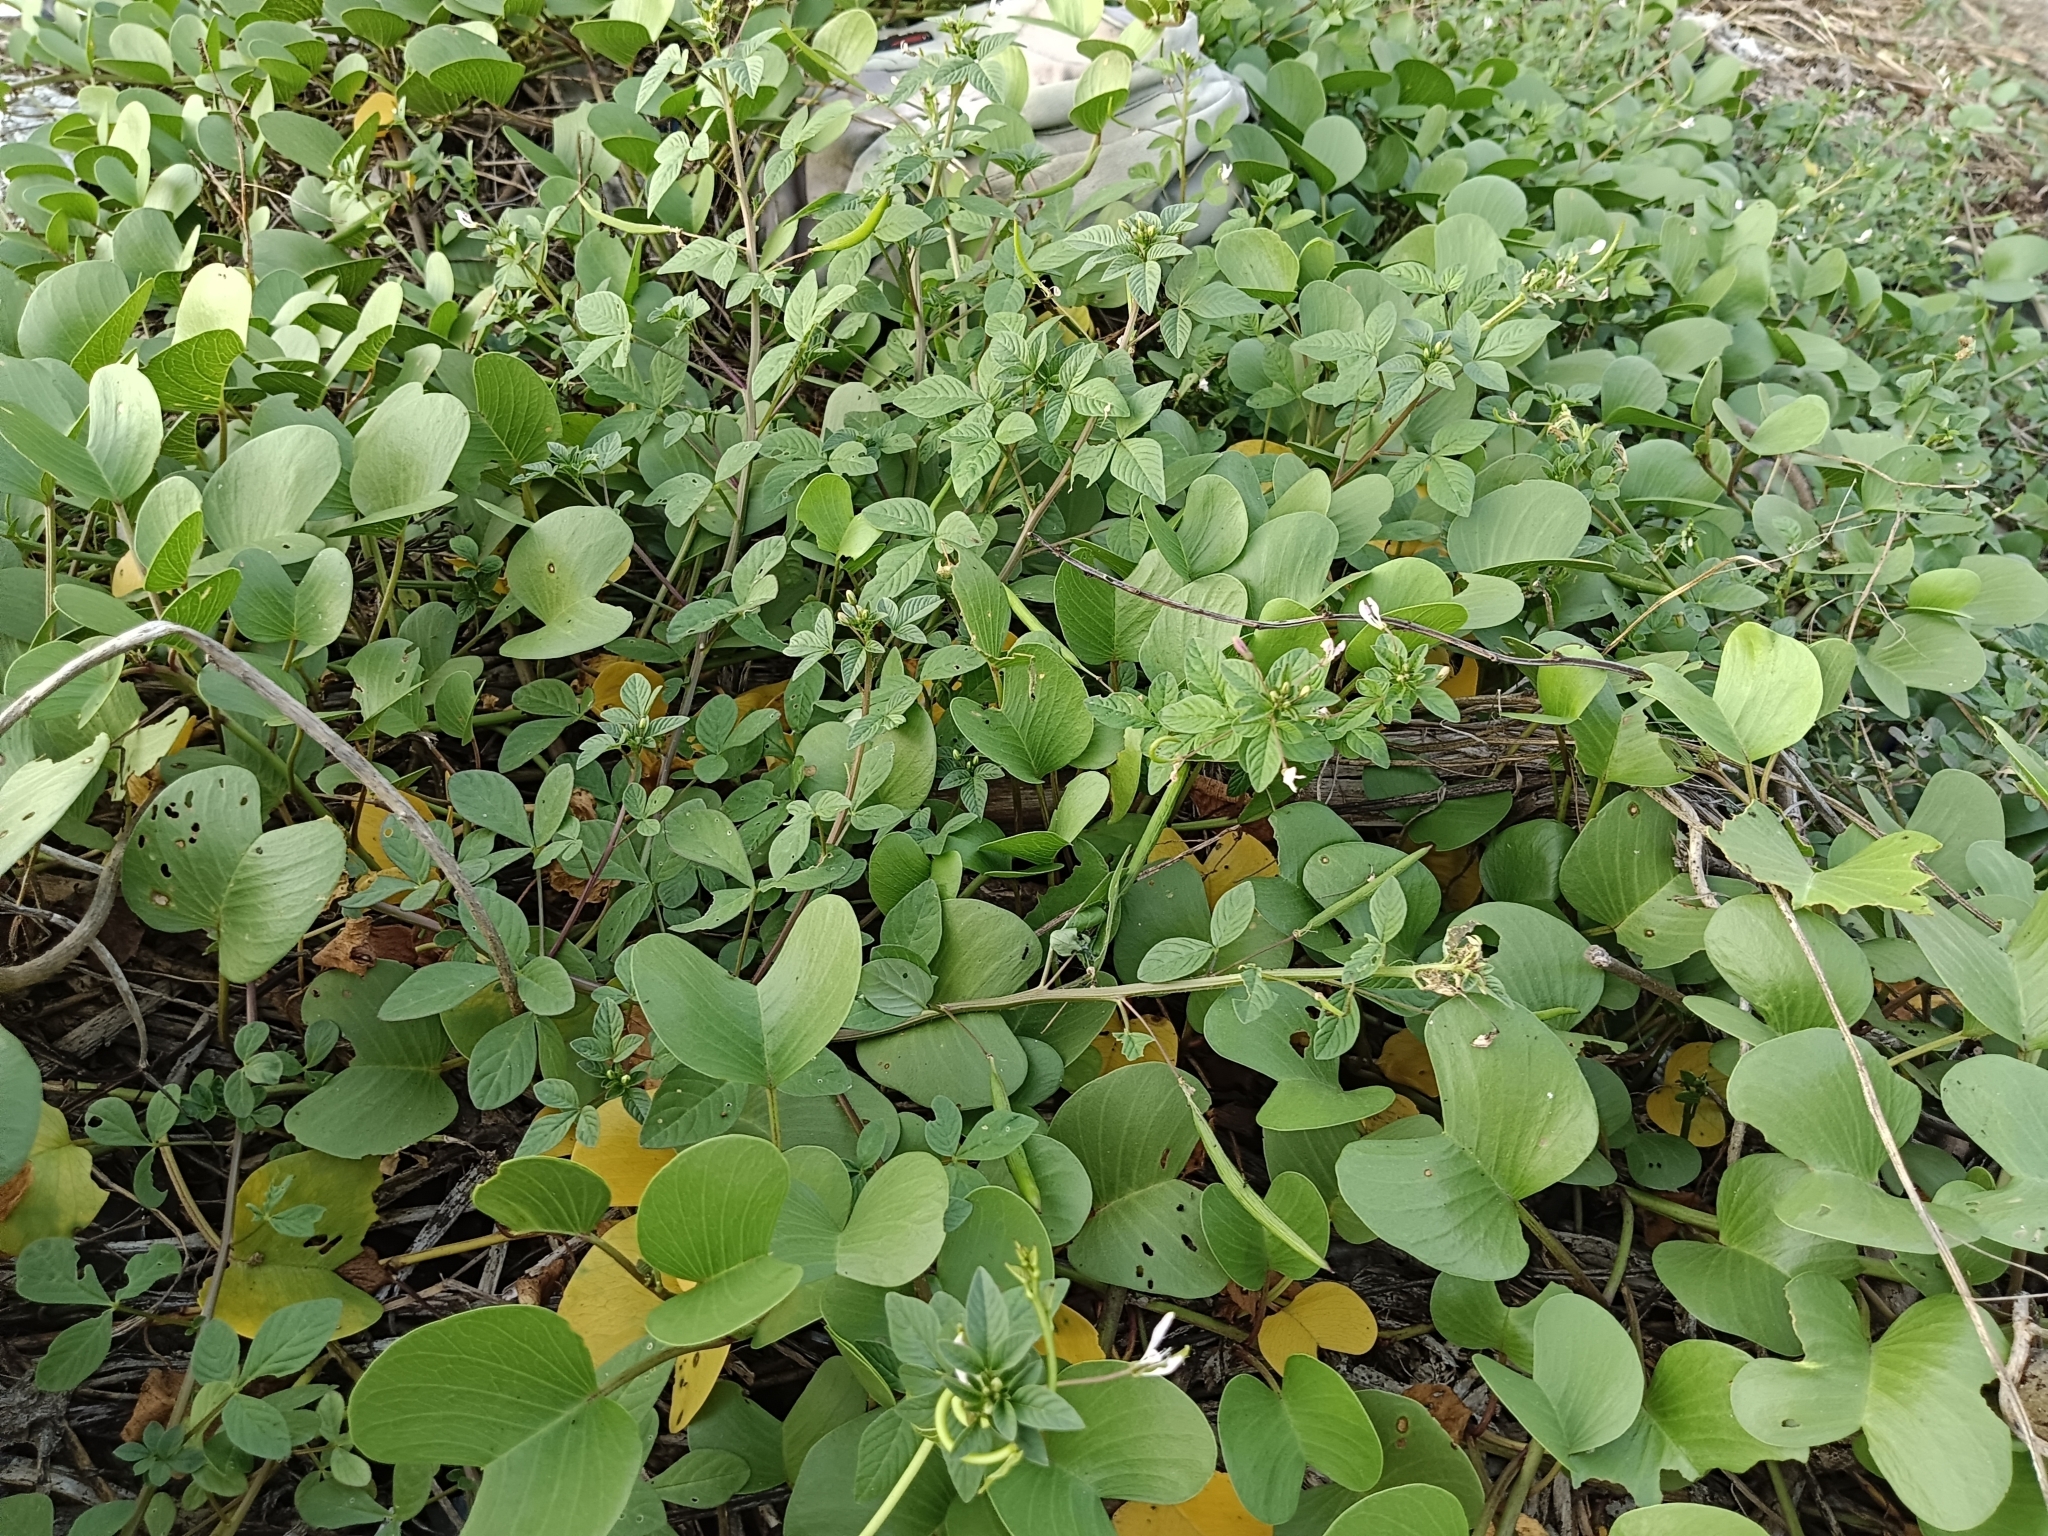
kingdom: Plantae
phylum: Tracheophyta
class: Magnoliopsida
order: Solanales
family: Convolvulaceae
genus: Ipomoea
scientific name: Ipomoea pes-caprae
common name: Beach morning glory
